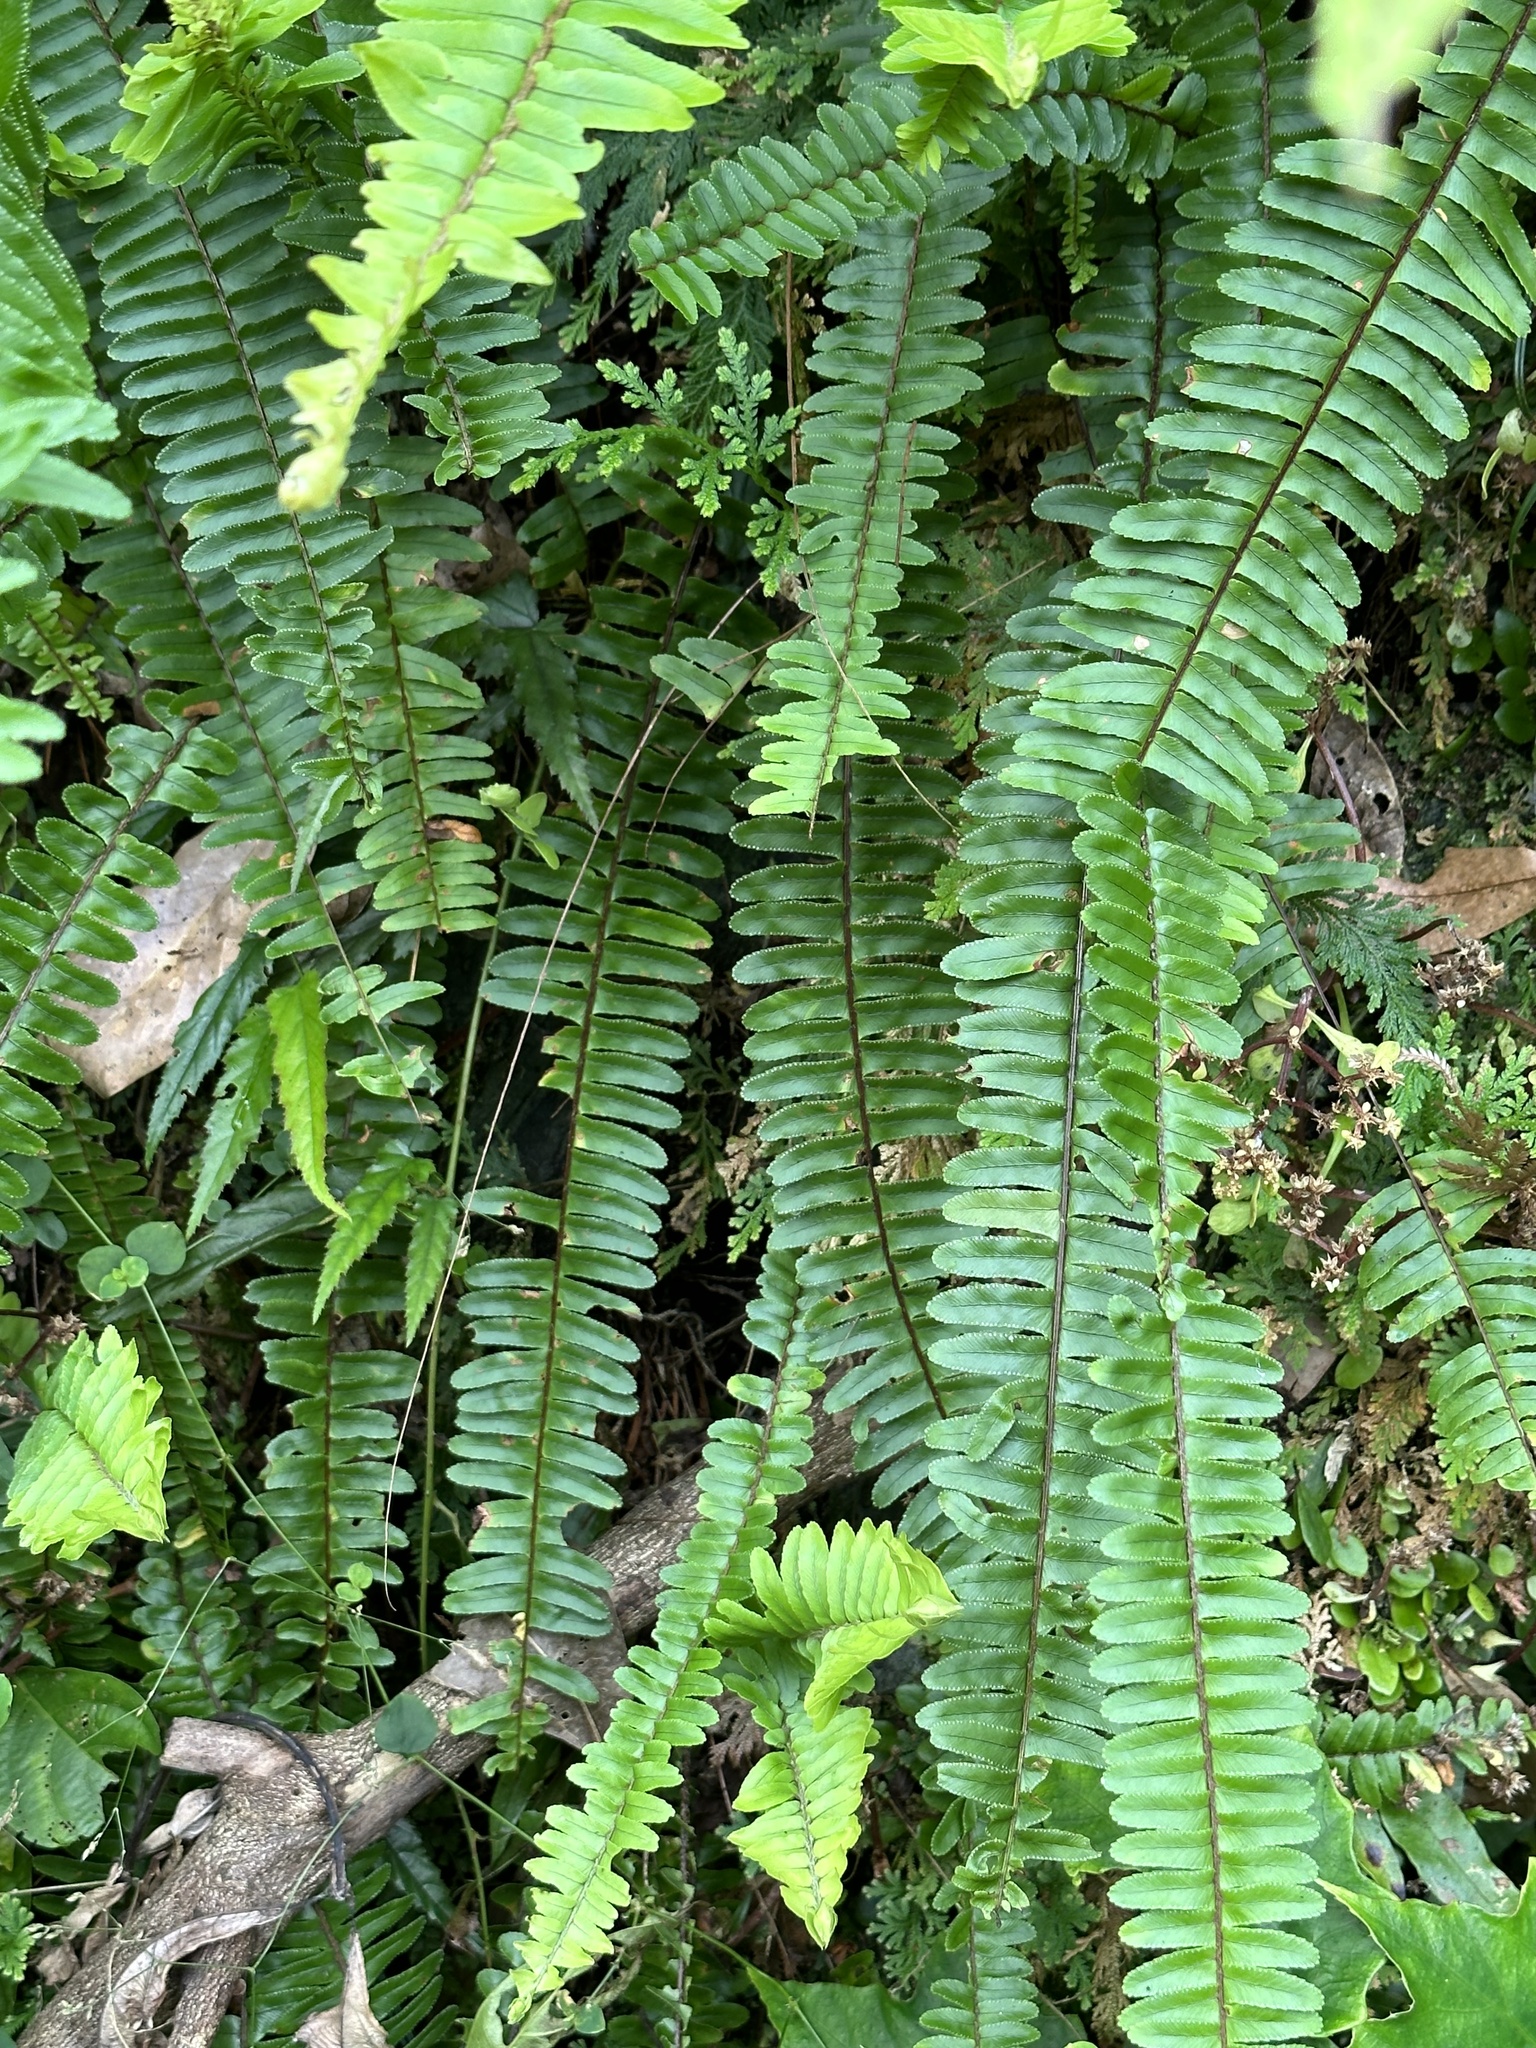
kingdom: Plantae
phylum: Tracheophyta
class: Polypodiopsida
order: Polypodiales
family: Nephrolepidaceae
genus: Nephrolepis
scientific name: Nephrolepis cordifolia
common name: Narrow swordfern
